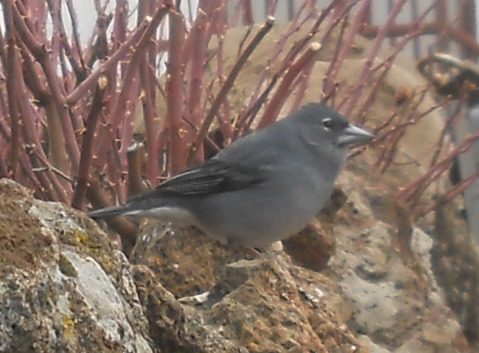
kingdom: Animalia
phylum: Chordata
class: Aves
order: Passeriformes
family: Fringillidae
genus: Fringilla
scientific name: Fringilla teydea
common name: Blue chaffinch
